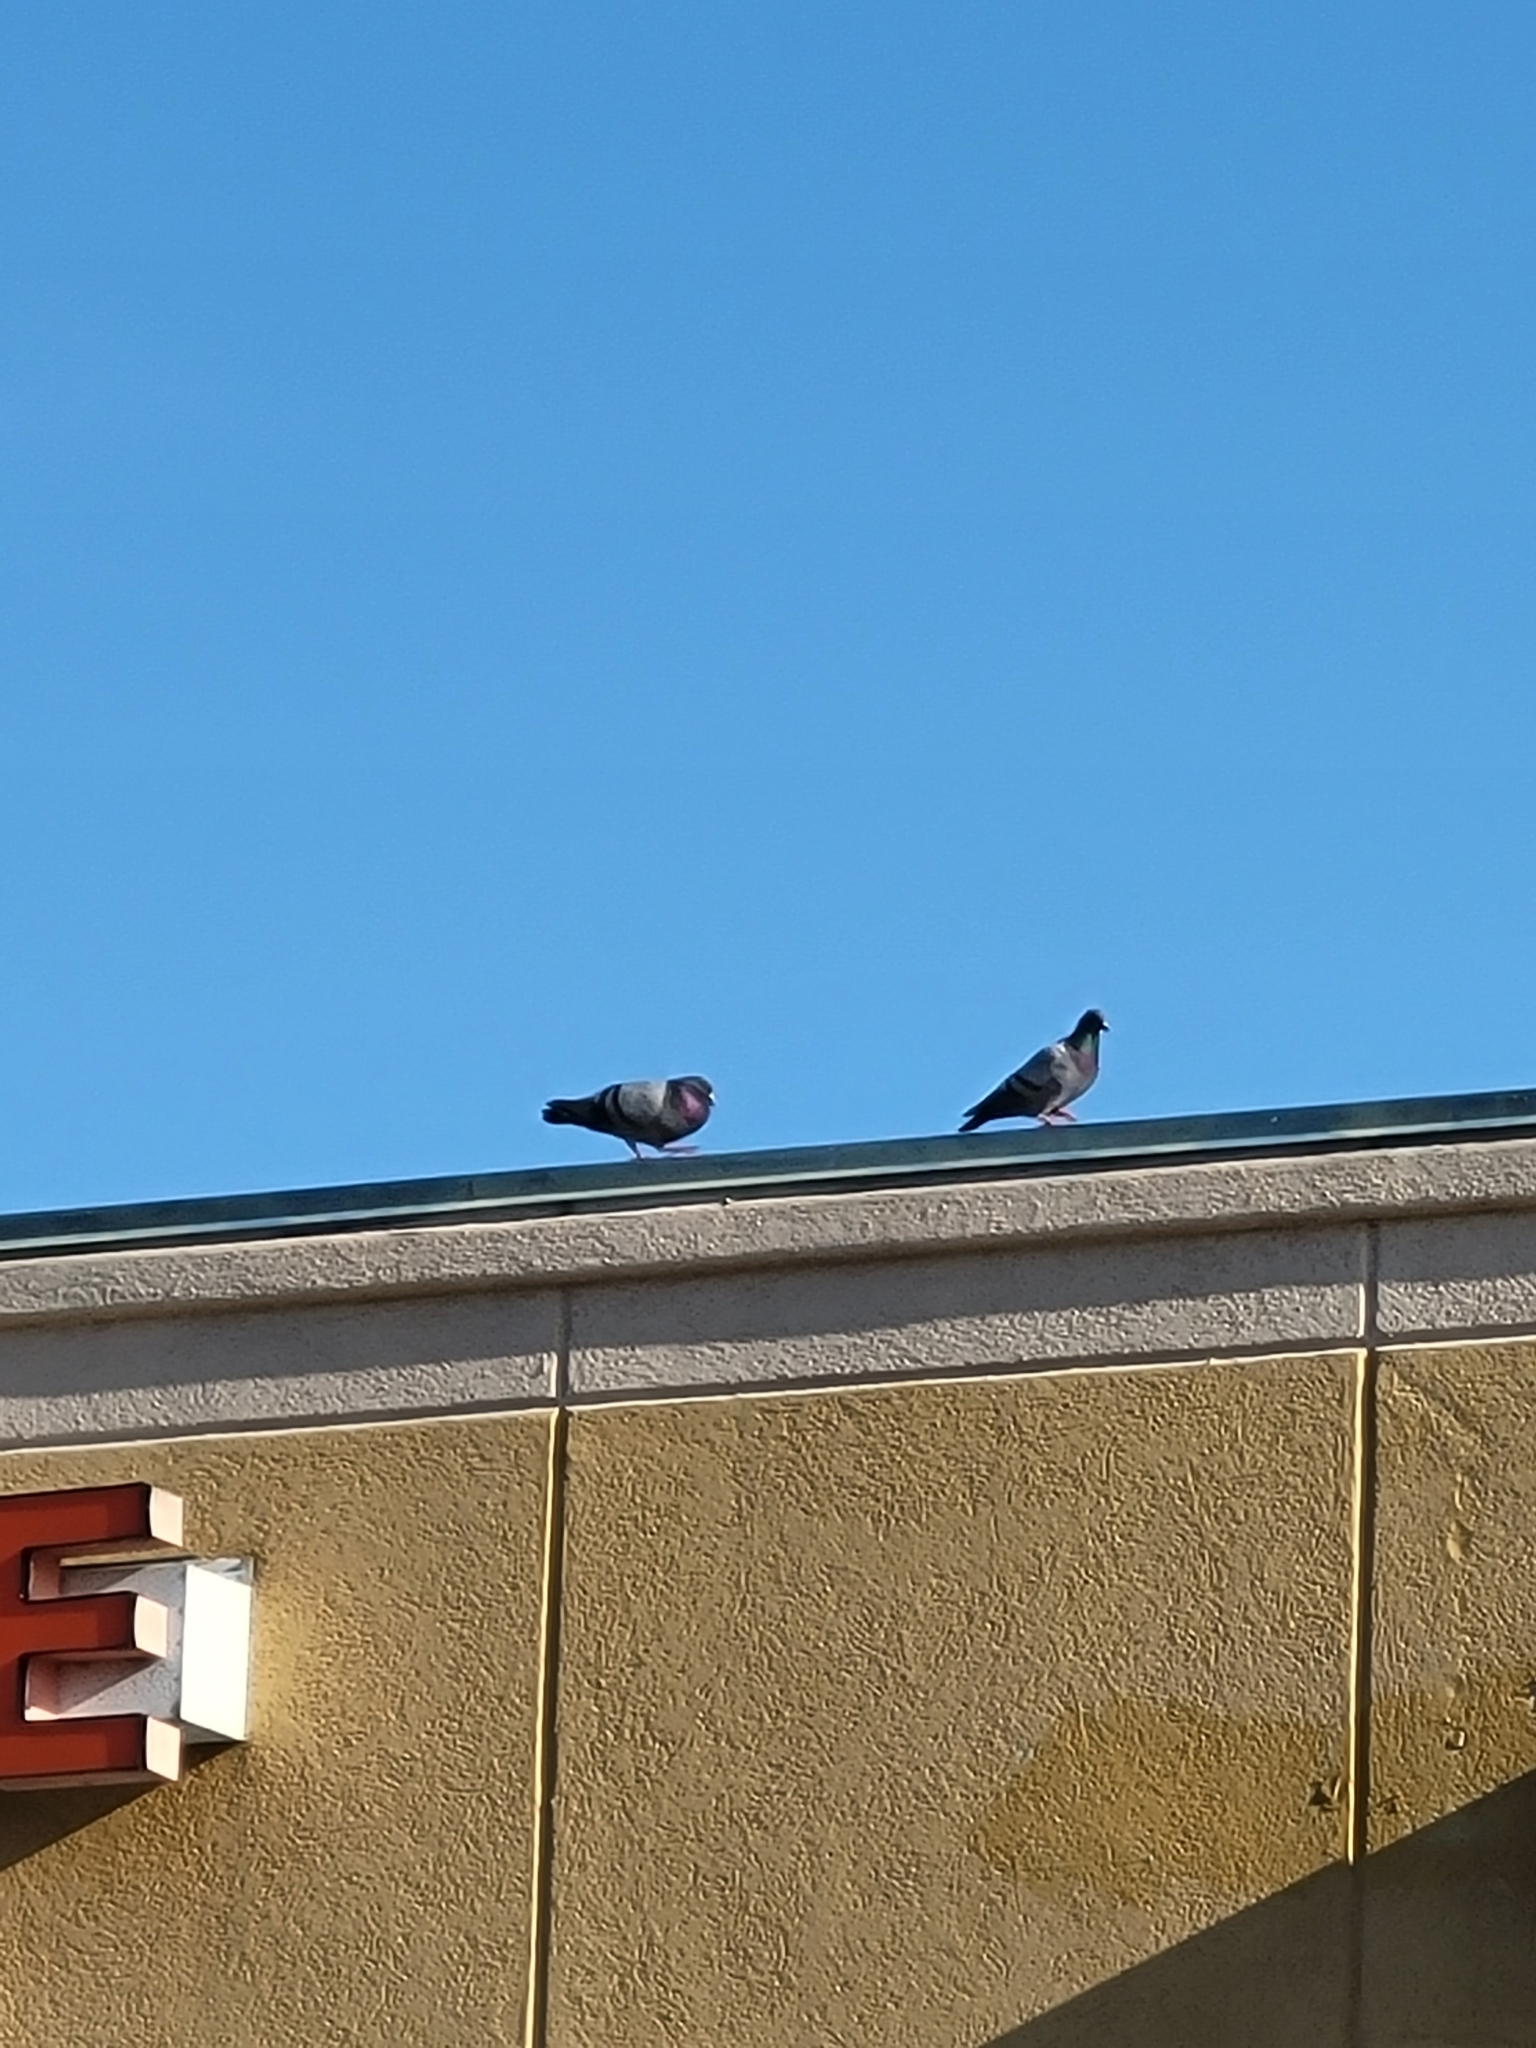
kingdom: Animalia
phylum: Chordata
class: Aves
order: Columbiformes
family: Columbidae
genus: Columba
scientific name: Columba livia
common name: Rock pigeon
